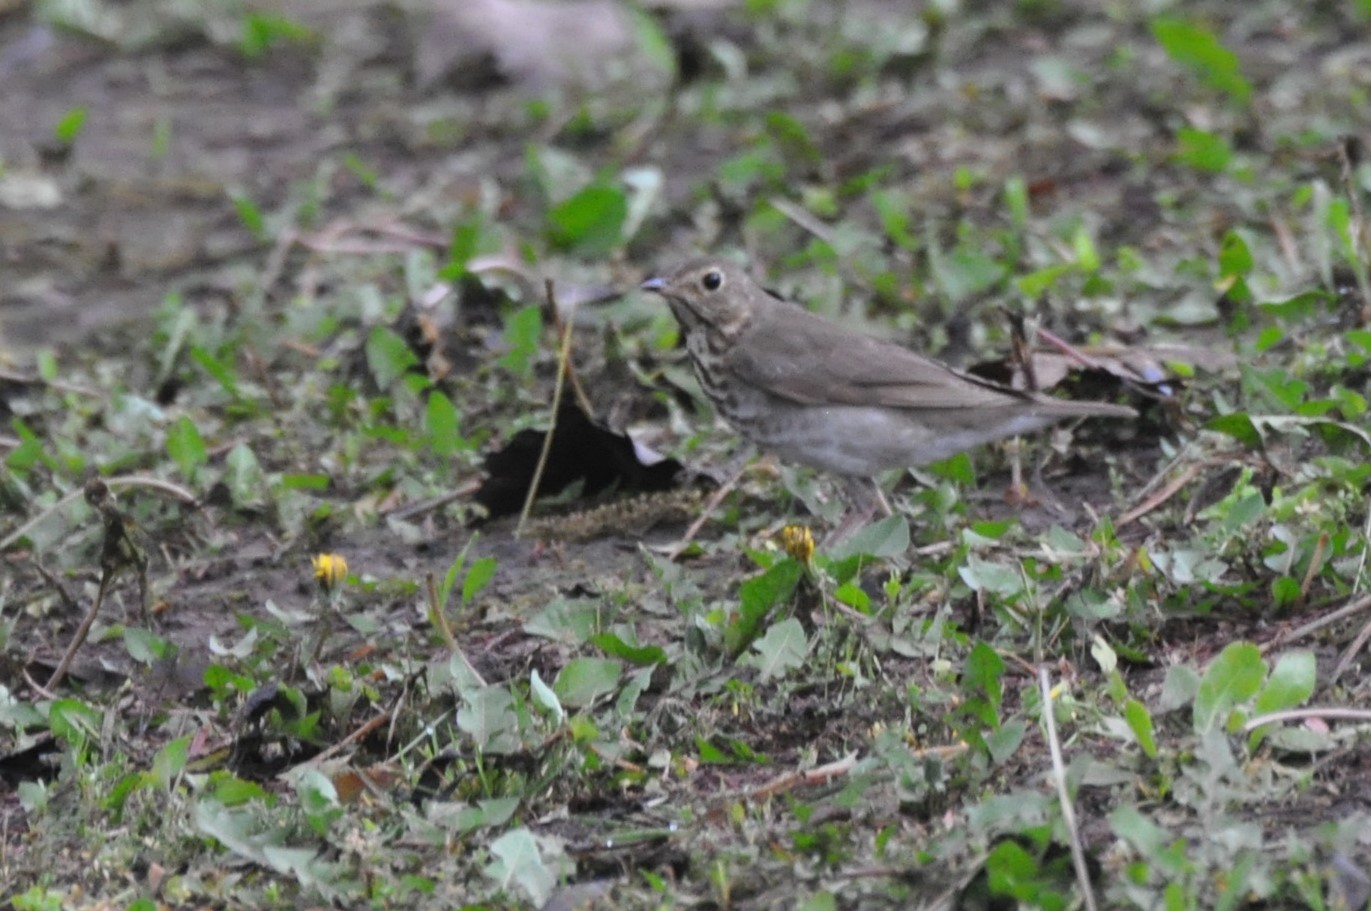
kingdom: Animalia
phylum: Chordata
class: Aves
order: Passeriformes
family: Turdidae
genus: Catharus
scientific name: Catharus ustulatus
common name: Swainson's thrush
